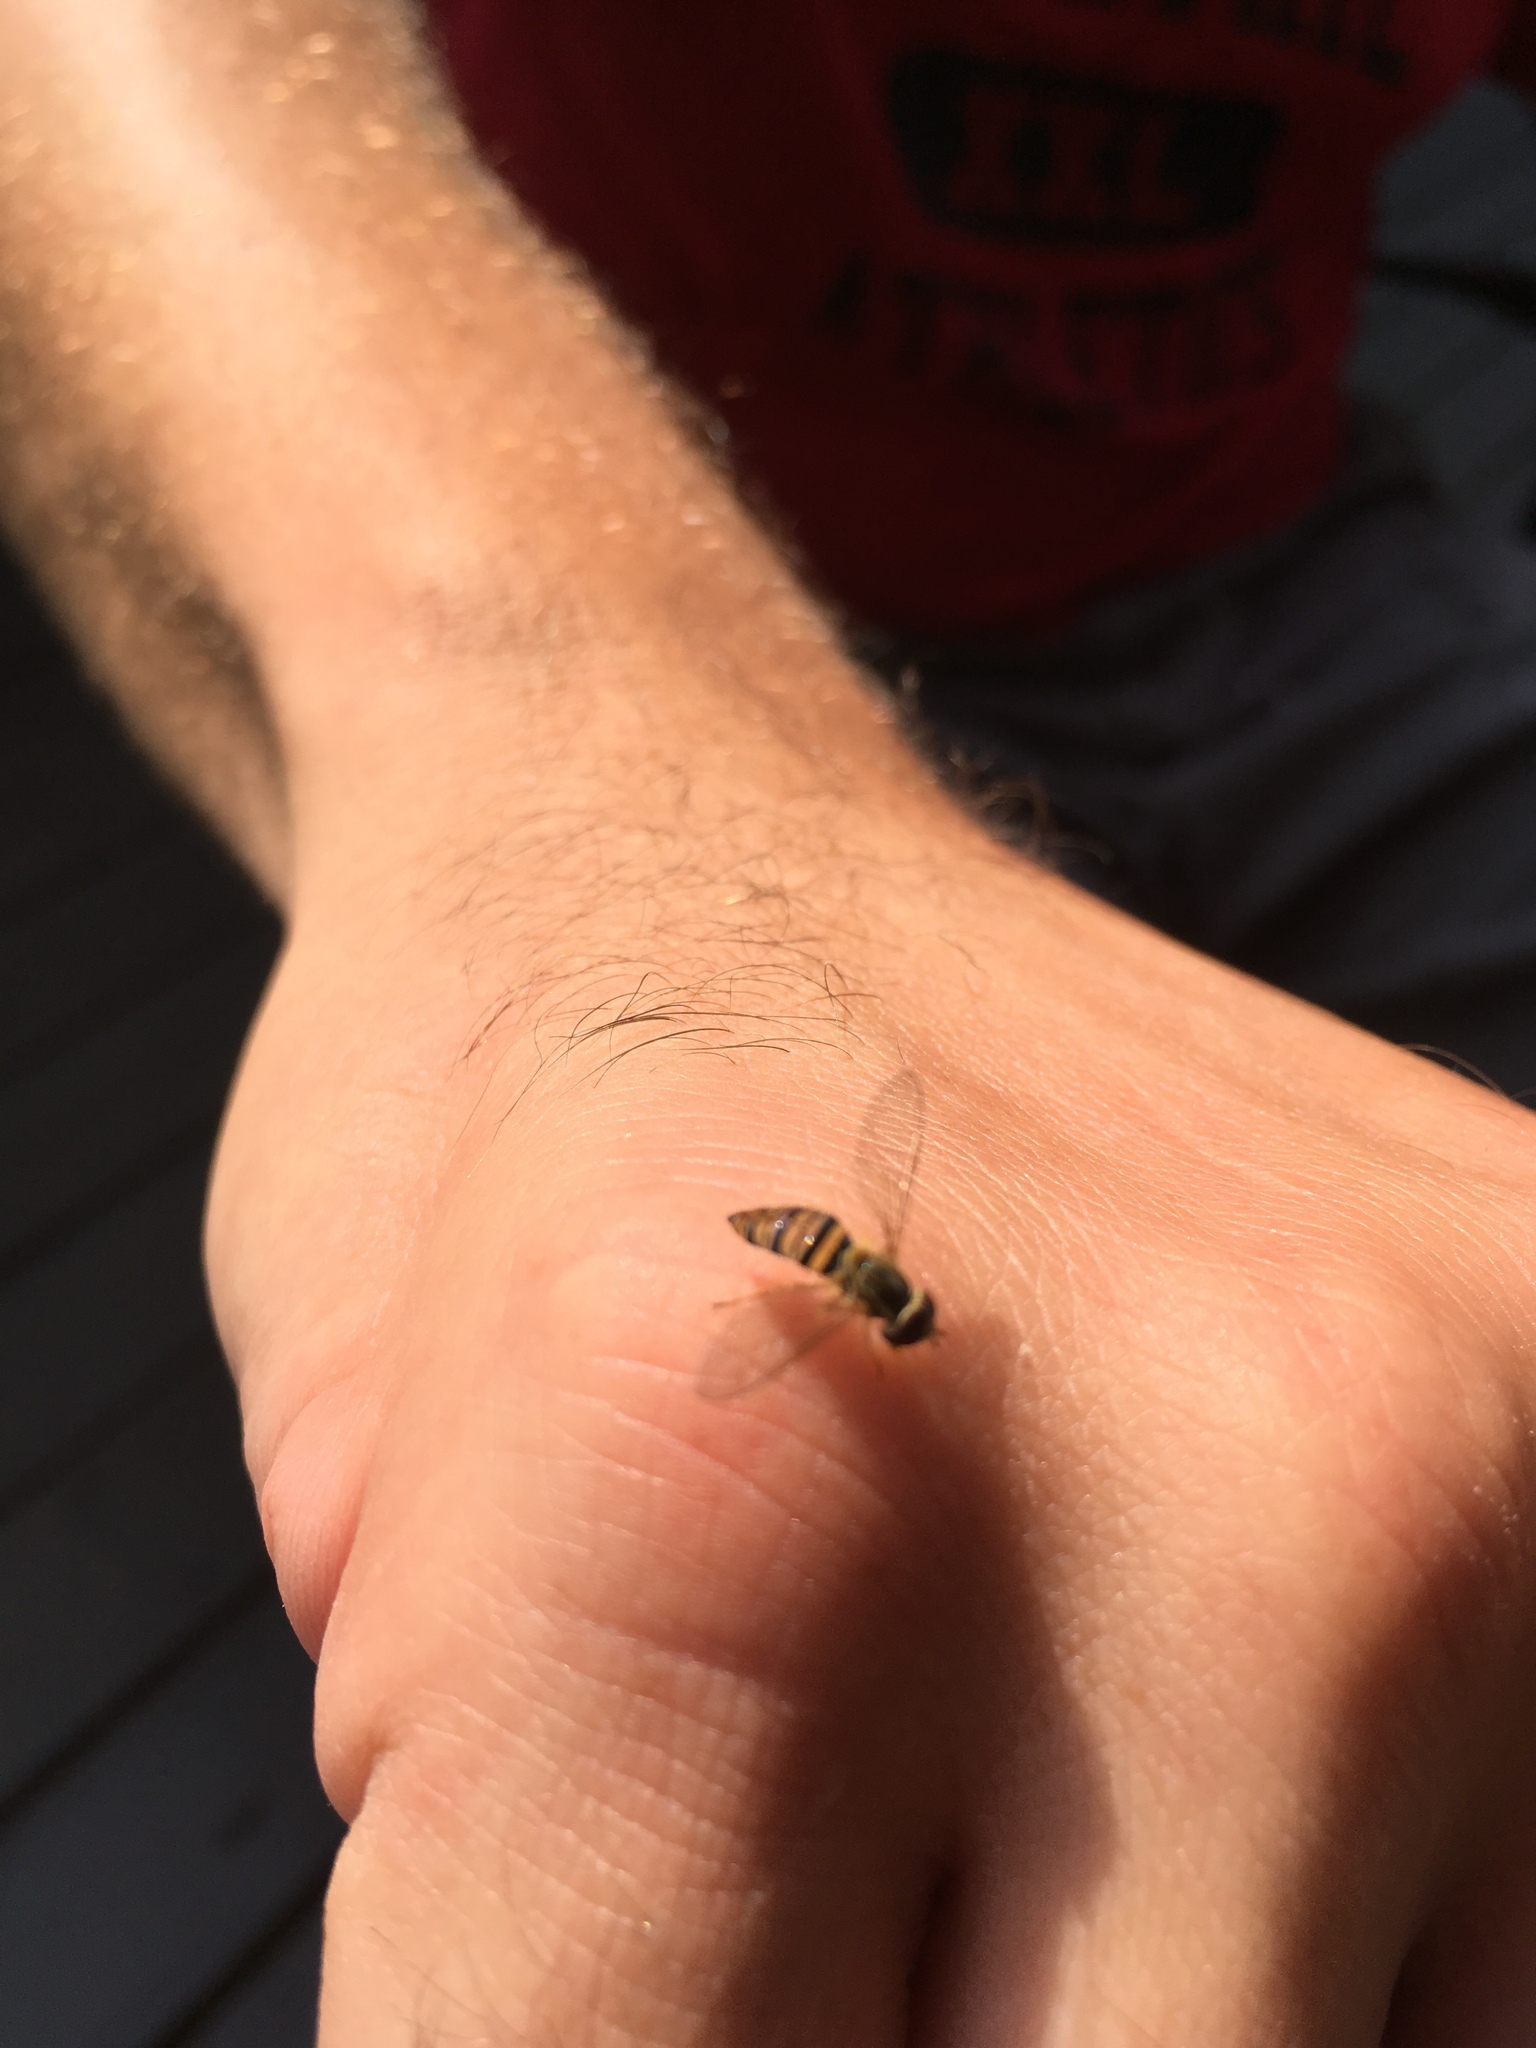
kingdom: Animalia
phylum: Arthropoda
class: Insecta
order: Diptera
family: Syrphidae
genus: Toxomerus
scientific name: Toxomerus politus
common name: Maize calligrapher
